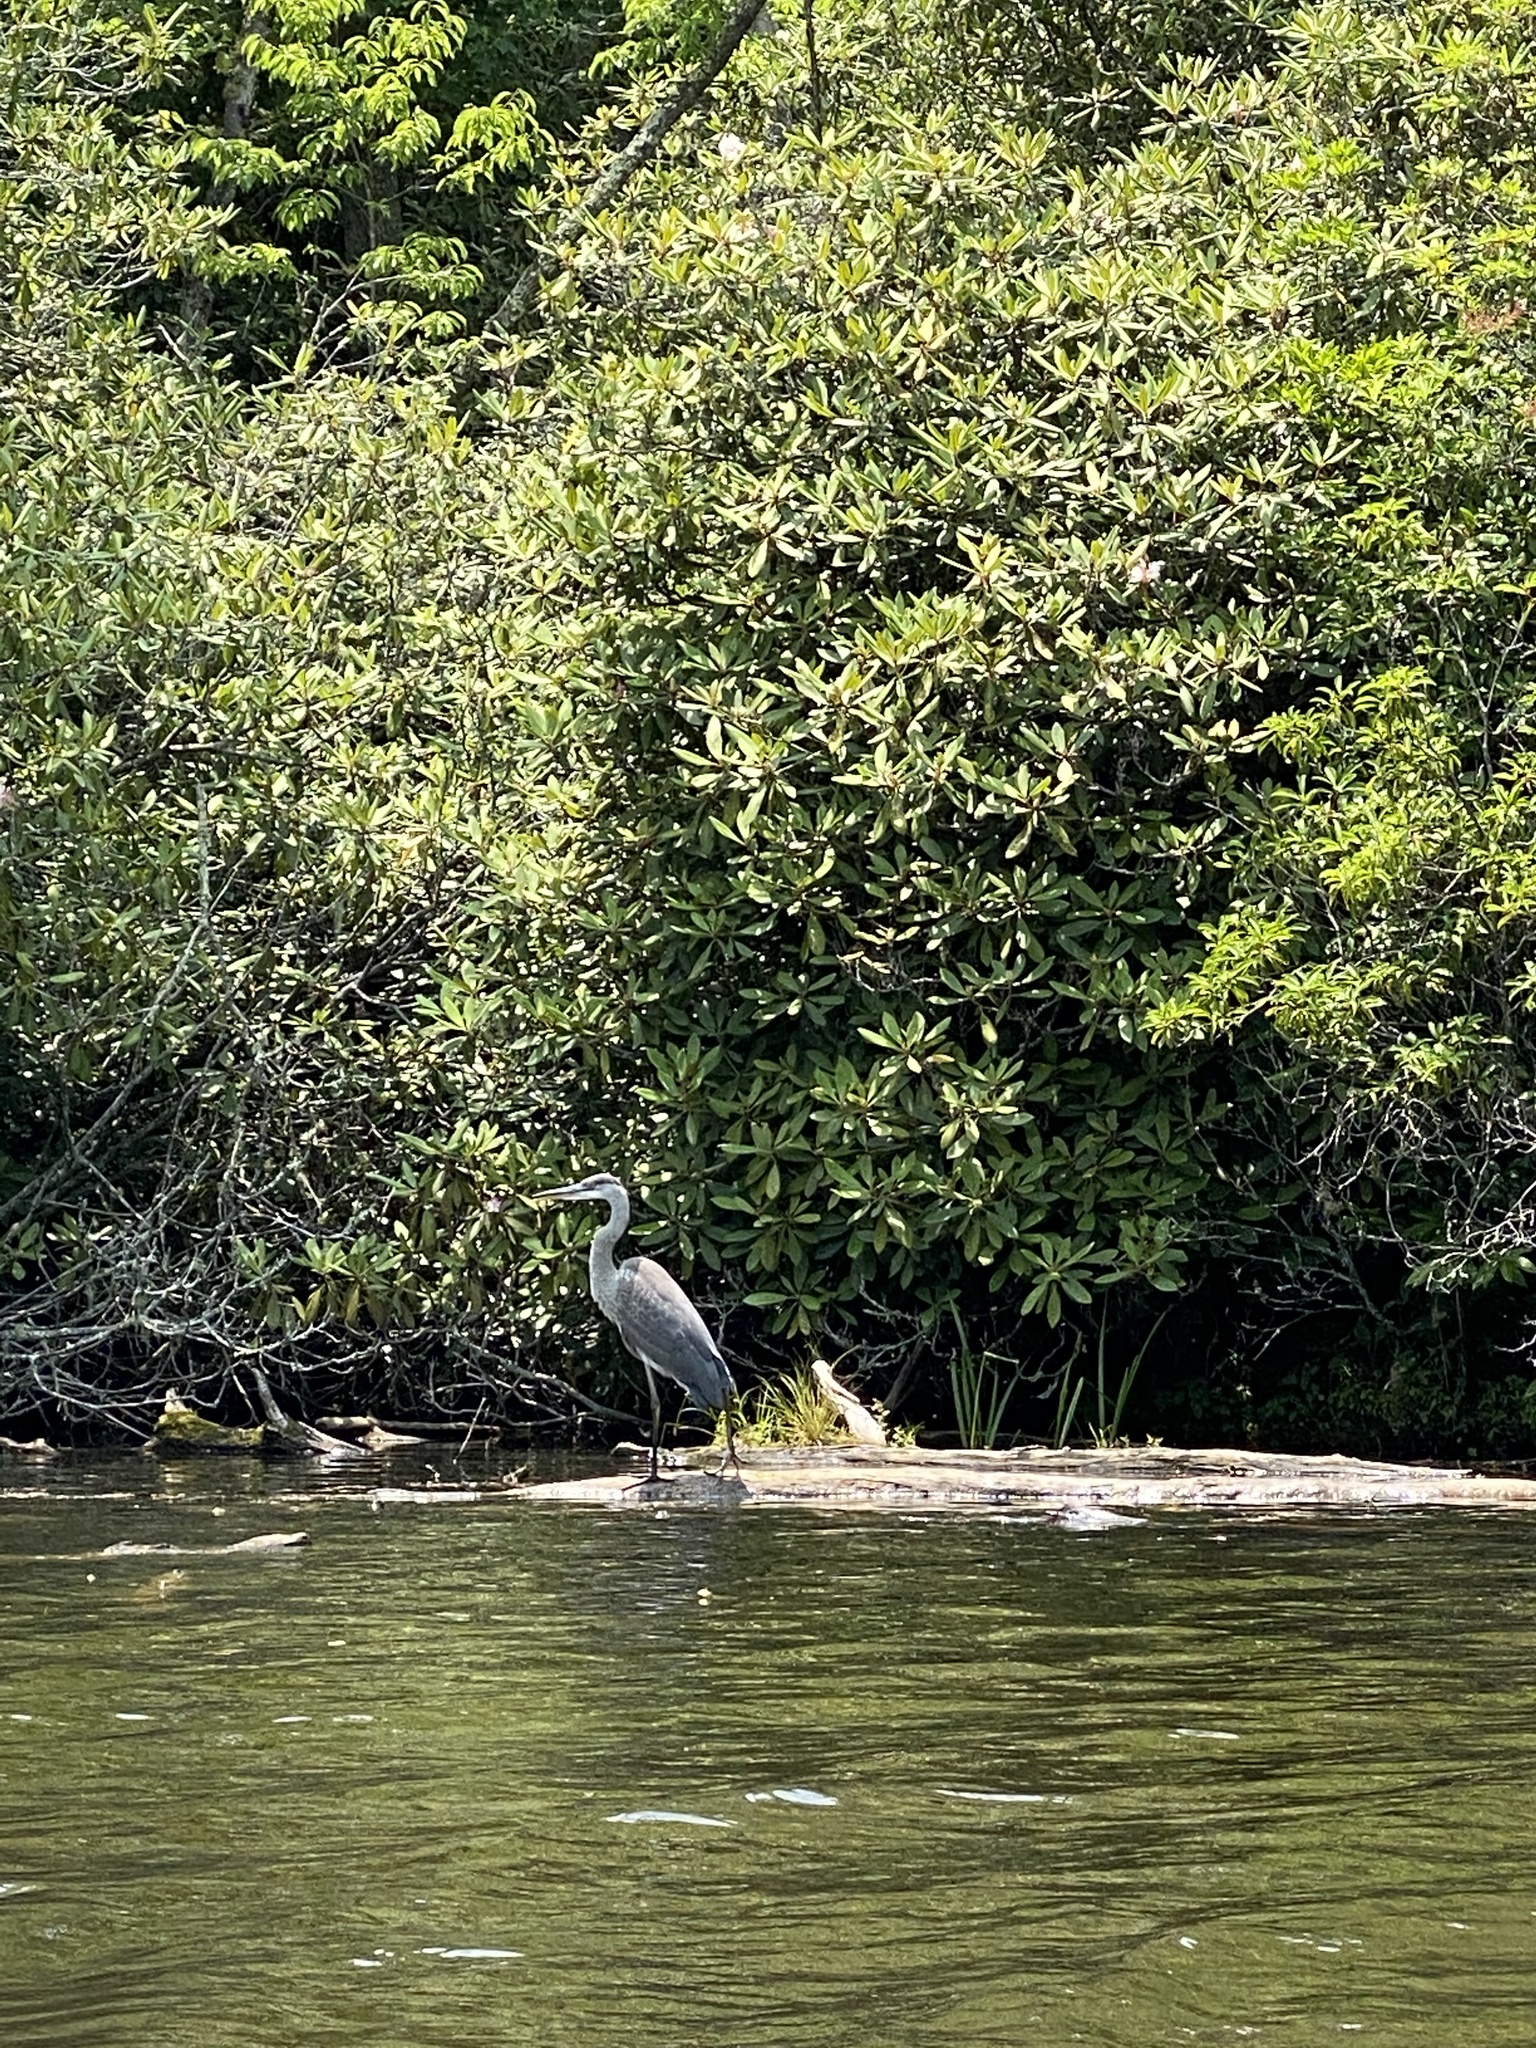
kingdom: Animalia
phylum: Chordata
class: Aves
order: Pelecaniformes
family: Ardeidae
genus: Ardea
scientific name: Ardea herodias
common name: Great blue heron
